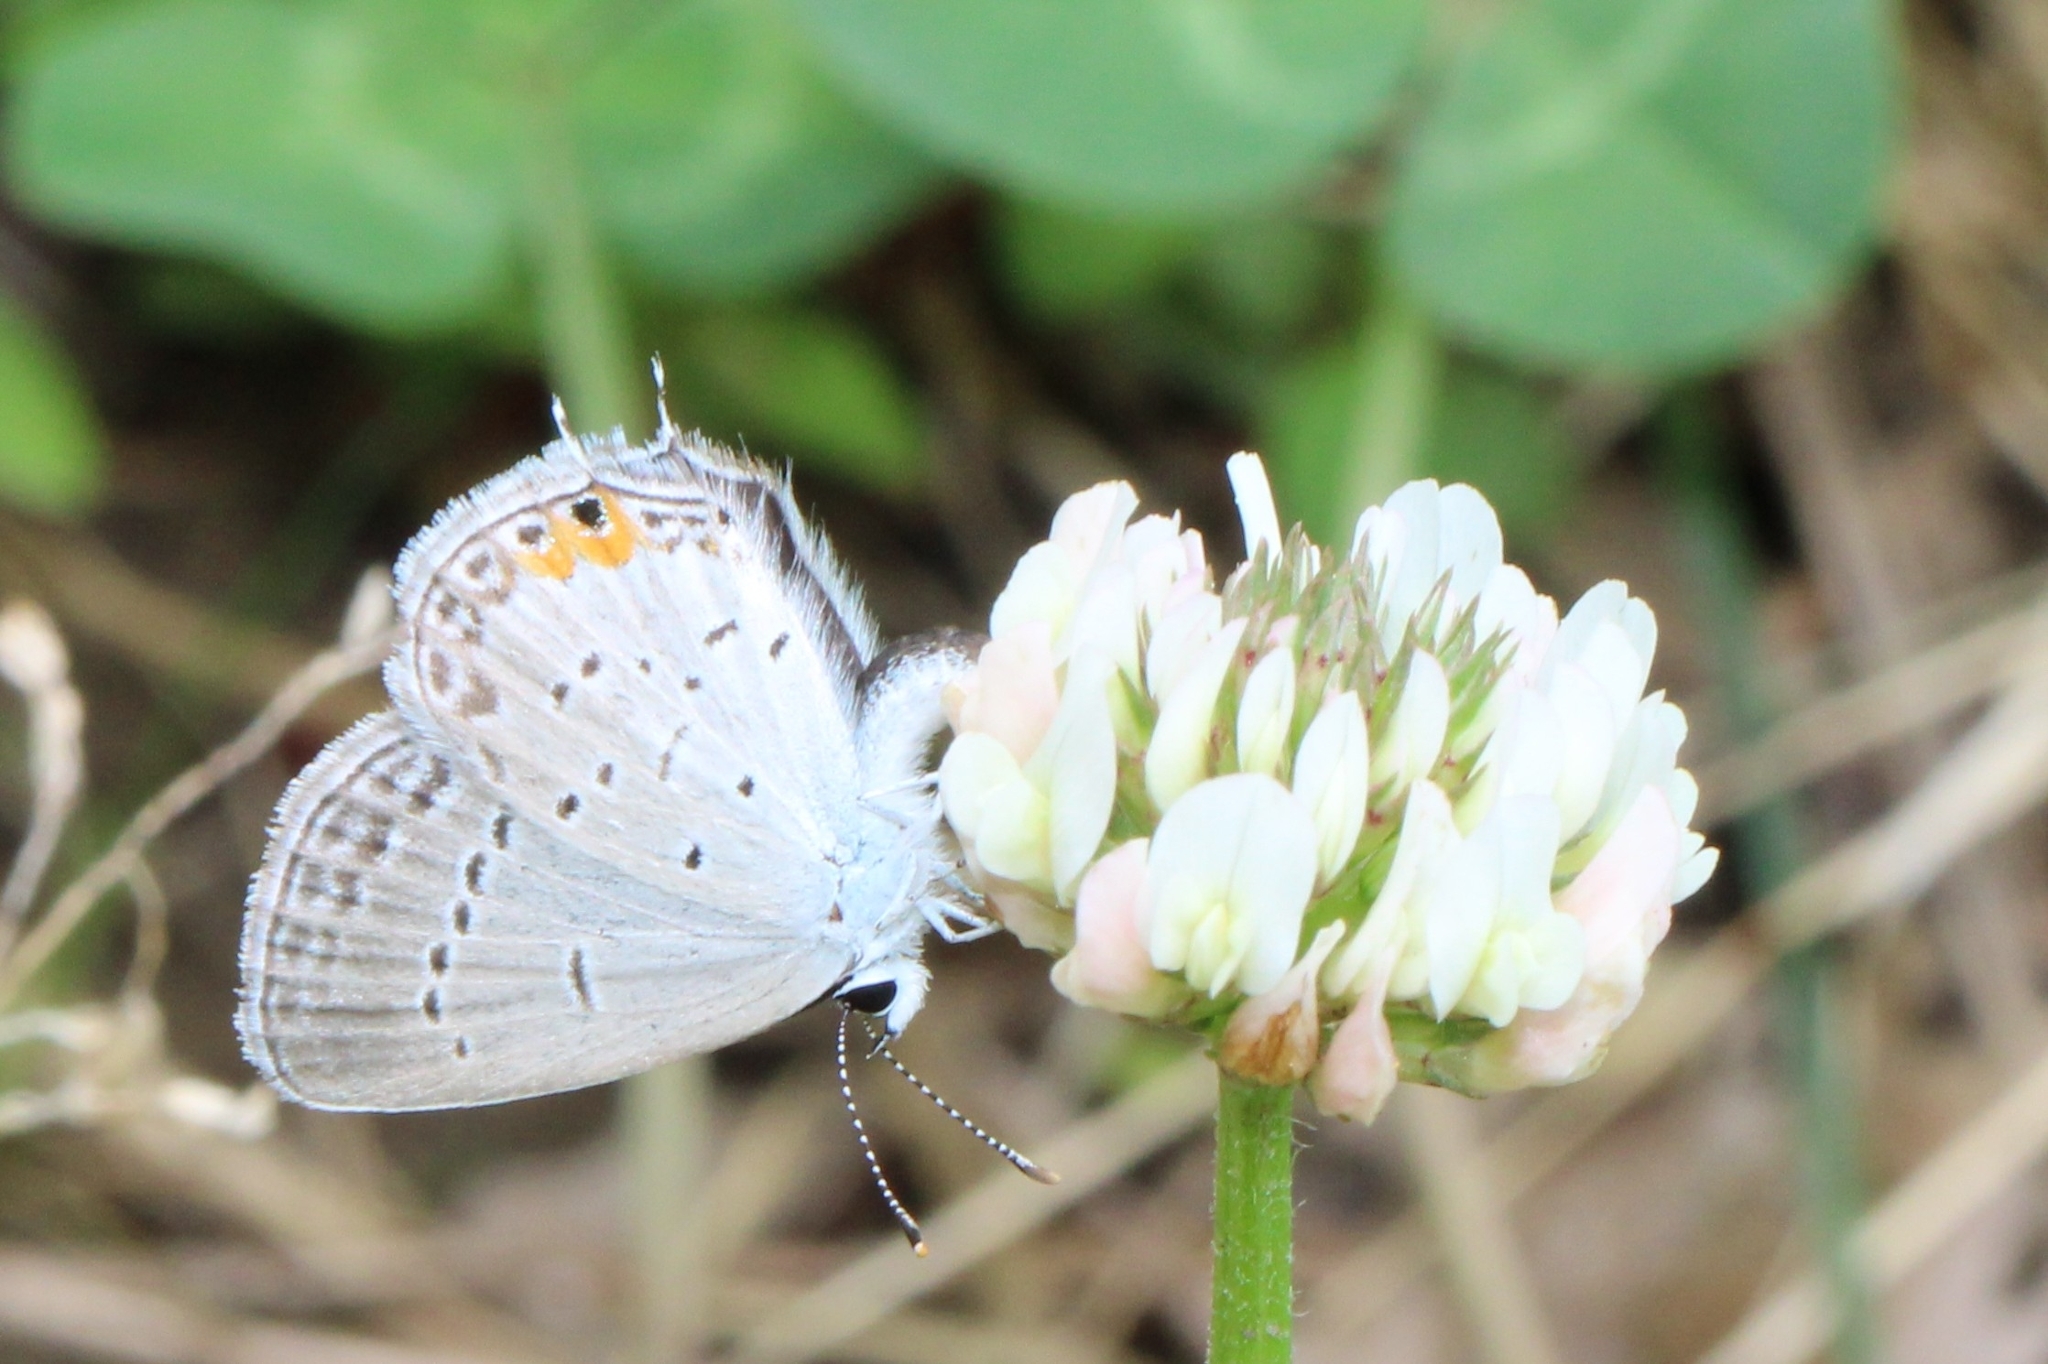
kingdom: Animalia
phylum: Arthropoda
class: Insecta
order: Lepidoptera
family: Lycaenidae
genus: Elkalyce
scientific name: Elkalyce comyntas
